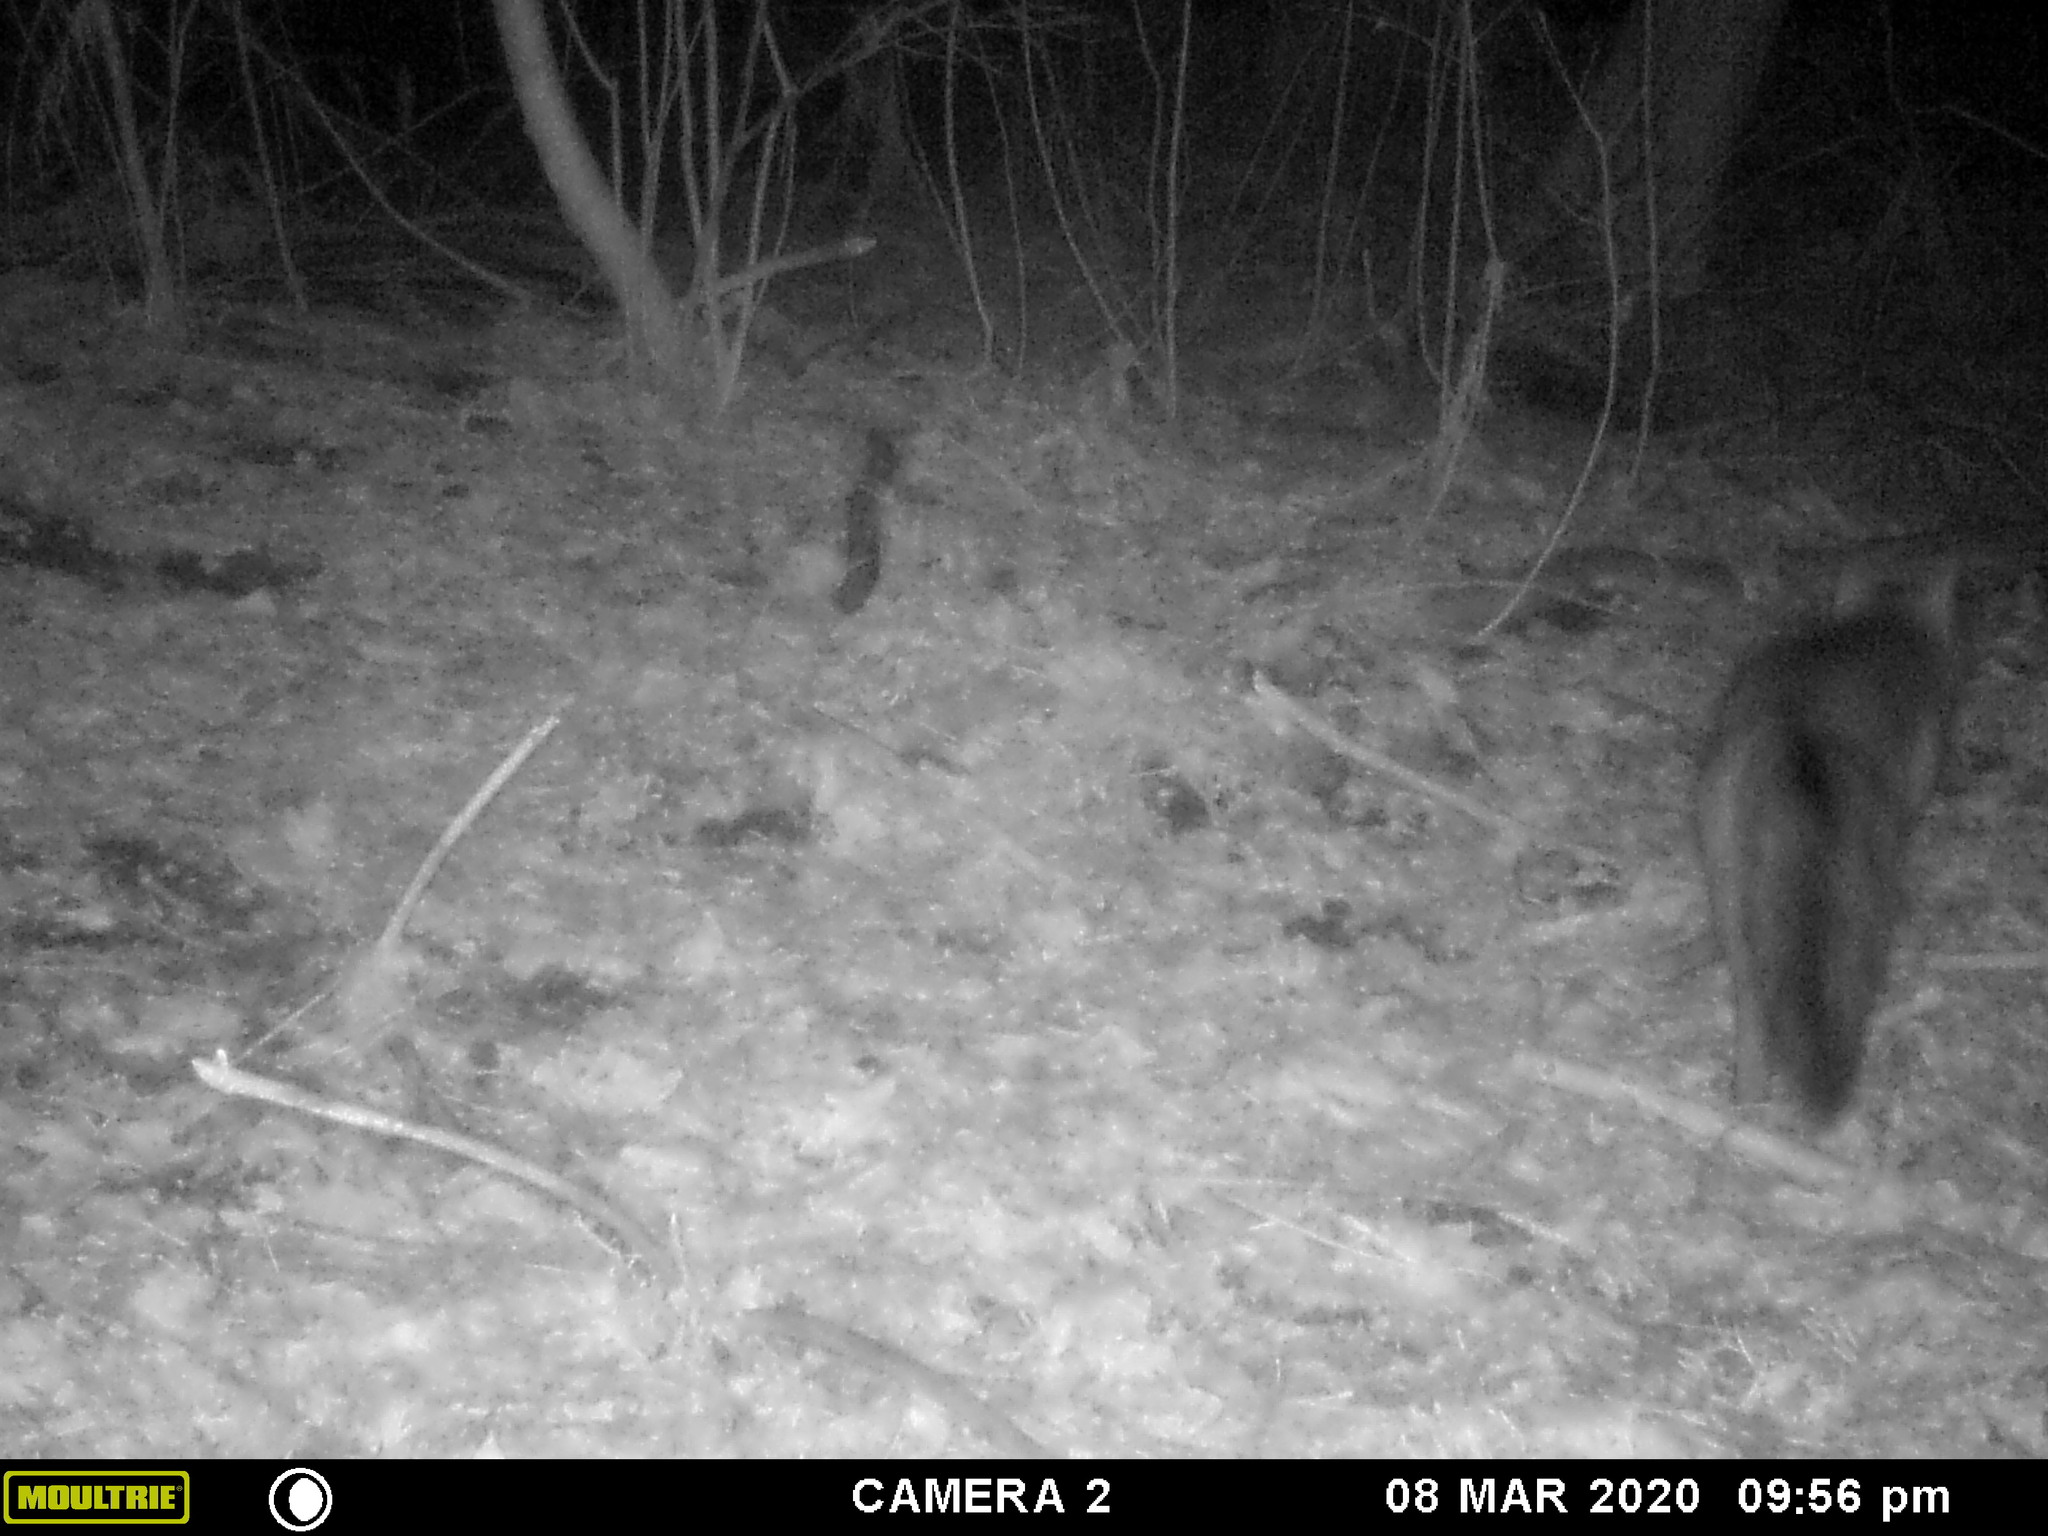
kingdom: Animalia
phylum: Chordata
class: Mammalia
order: Carnivora
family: Canidae
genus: Urocyon
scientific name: Urocyon cinereoargenteus
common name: Gray fox
